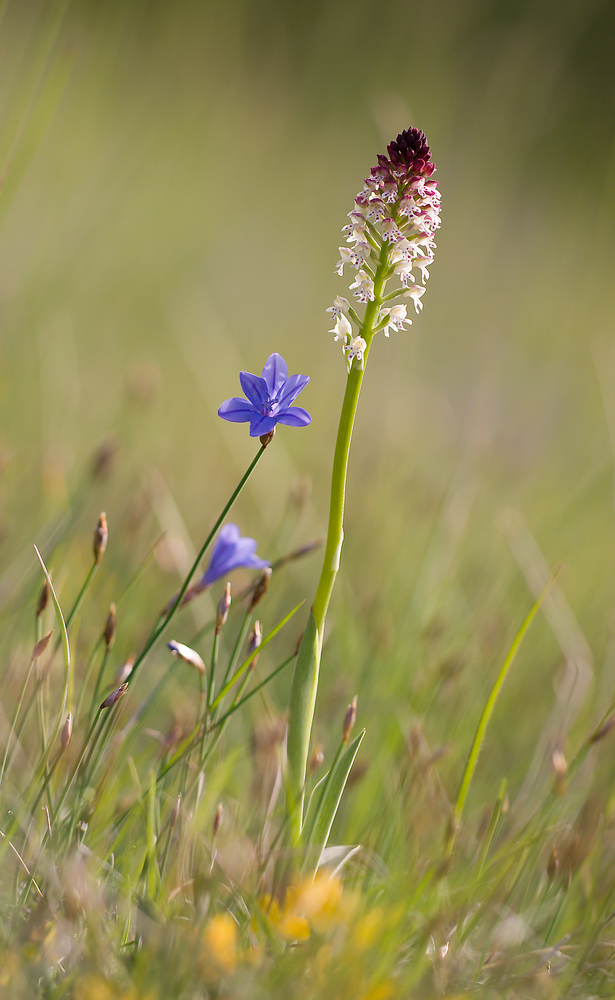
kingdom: Plantae
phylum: Tracheophyta
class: Liliopsida
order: Asparagales
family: Orchidaceae
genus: Neotinea
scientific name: Neotinea ustulata
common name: Burnt orchid
